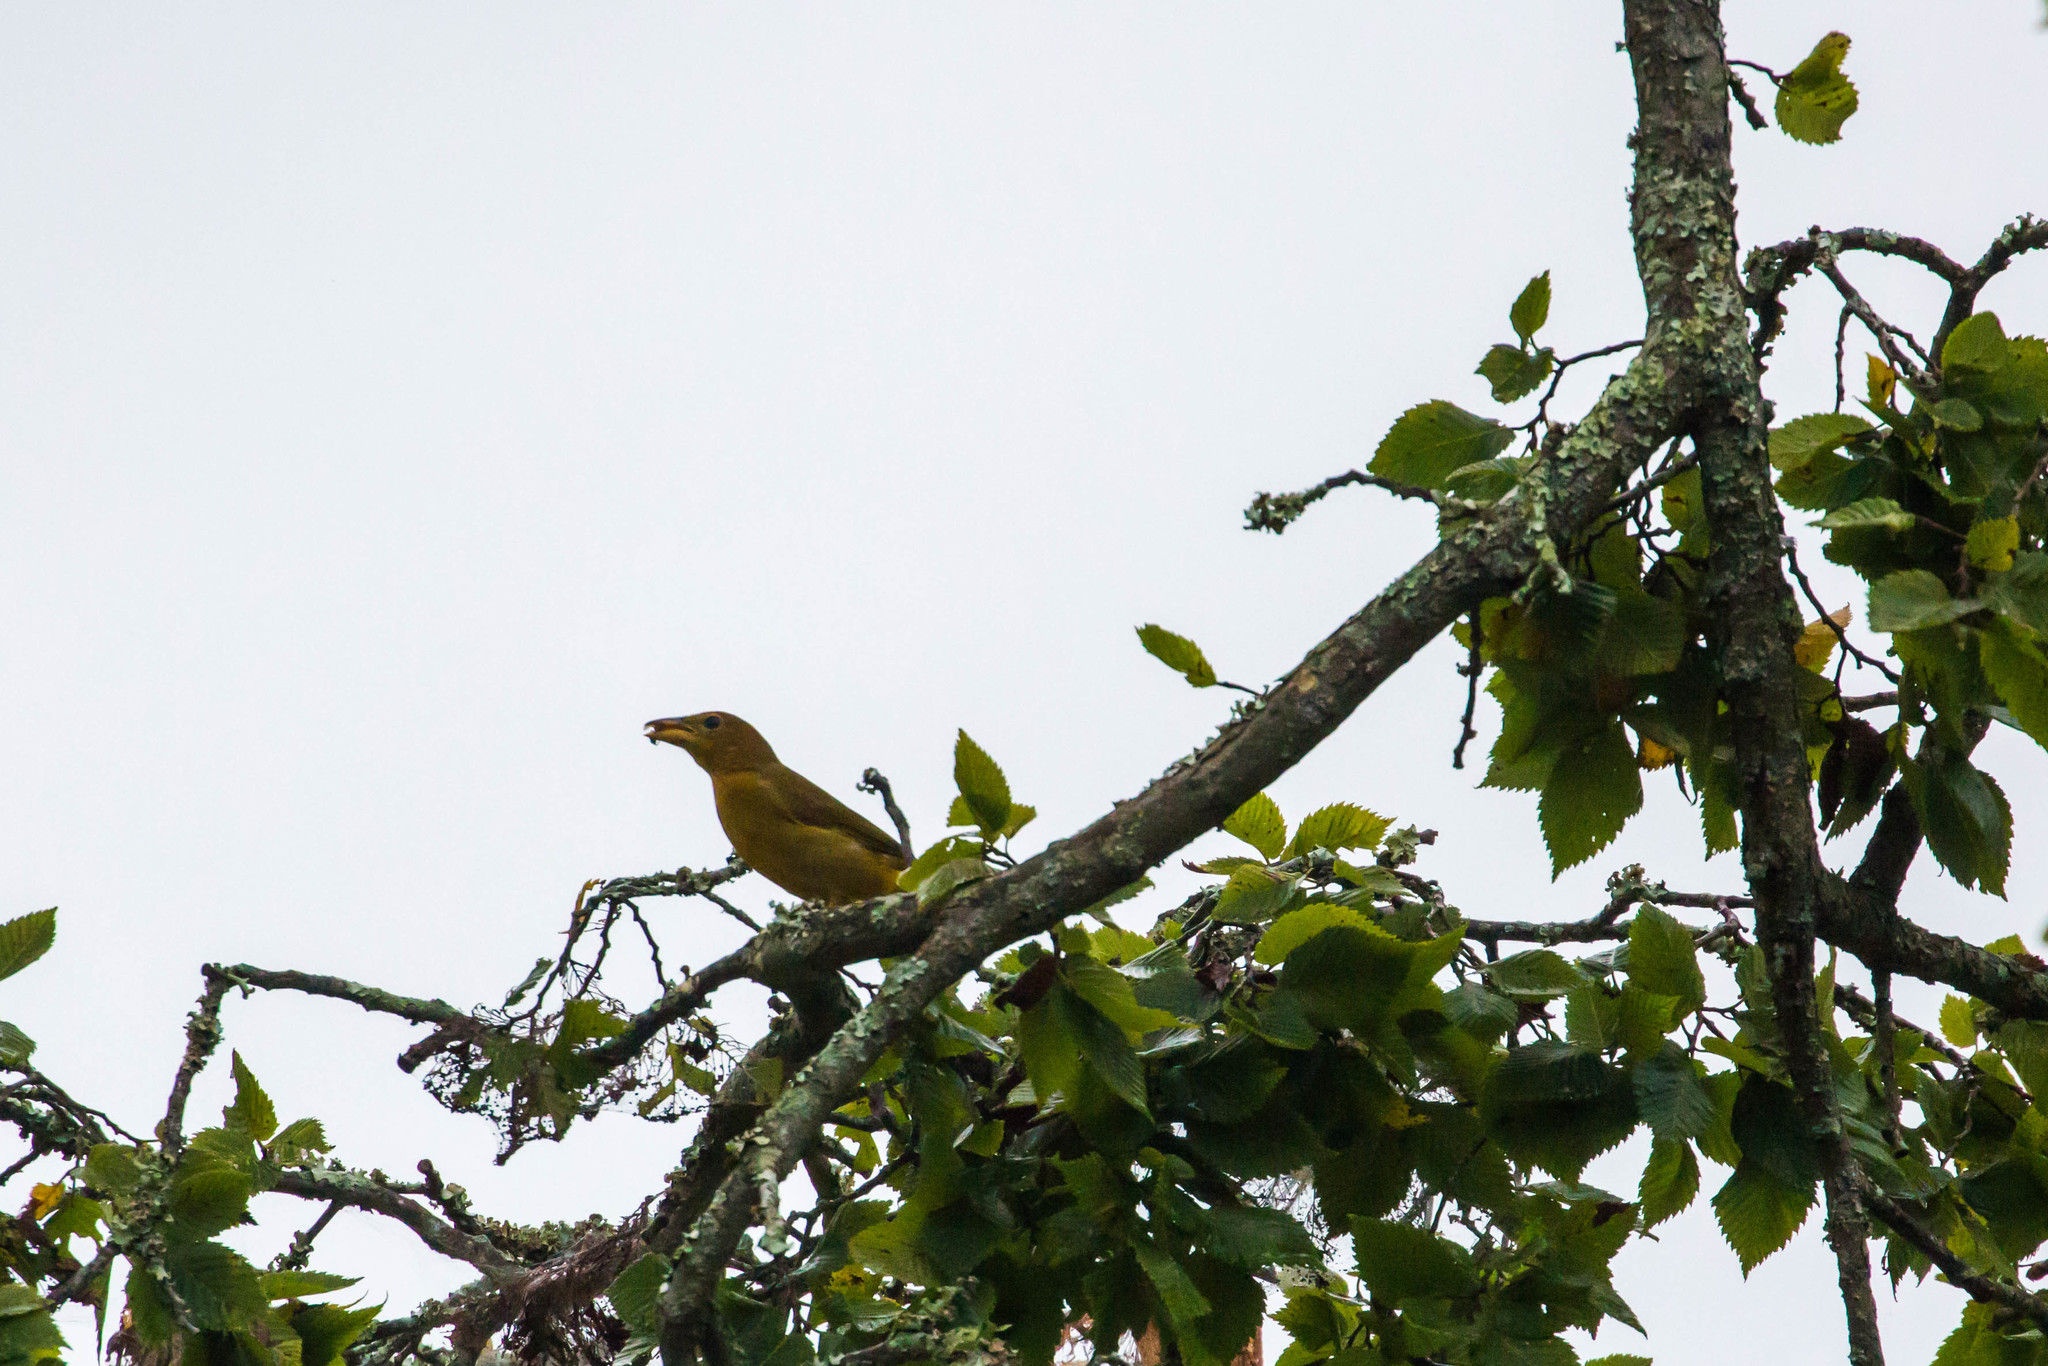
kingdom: Animalia
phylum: Chordata
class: Aves
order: Passeriformes
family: Cardinalidae
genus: Piranga
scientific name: Piranga rubra
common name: Summer tanager
